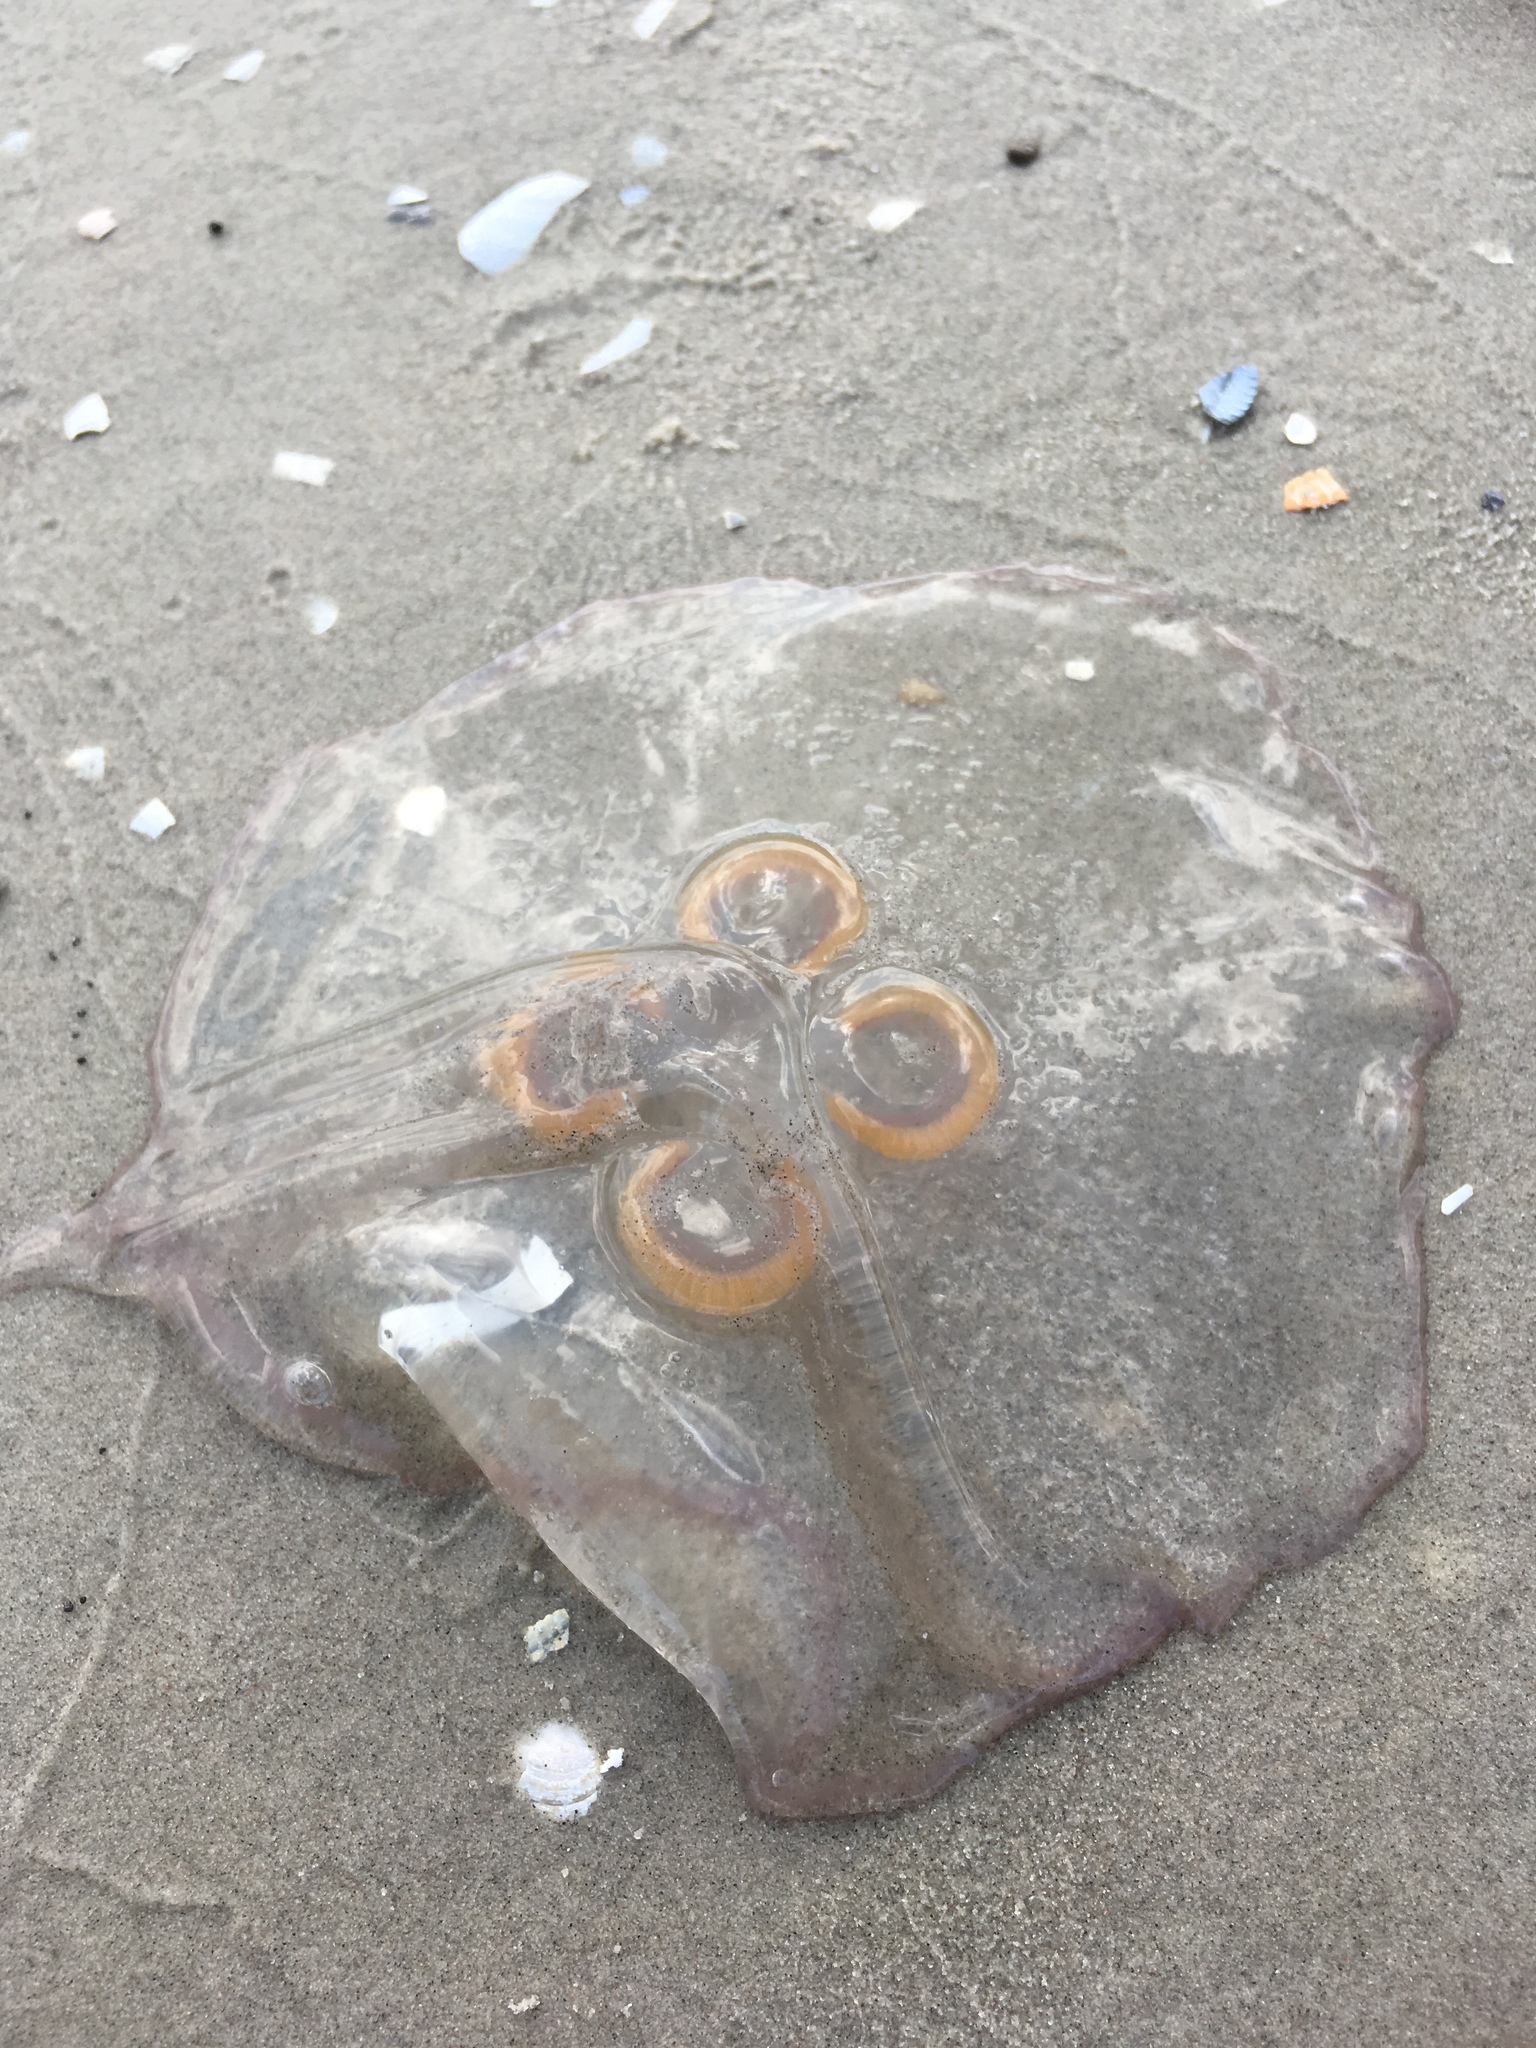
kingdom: Animalia
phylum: Cnidaria
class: Scyphozoa
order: Semaeostomeae
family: Ulmaridae
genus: Aurelia
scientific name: Aurelia aurita
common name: Moon jellyfish
